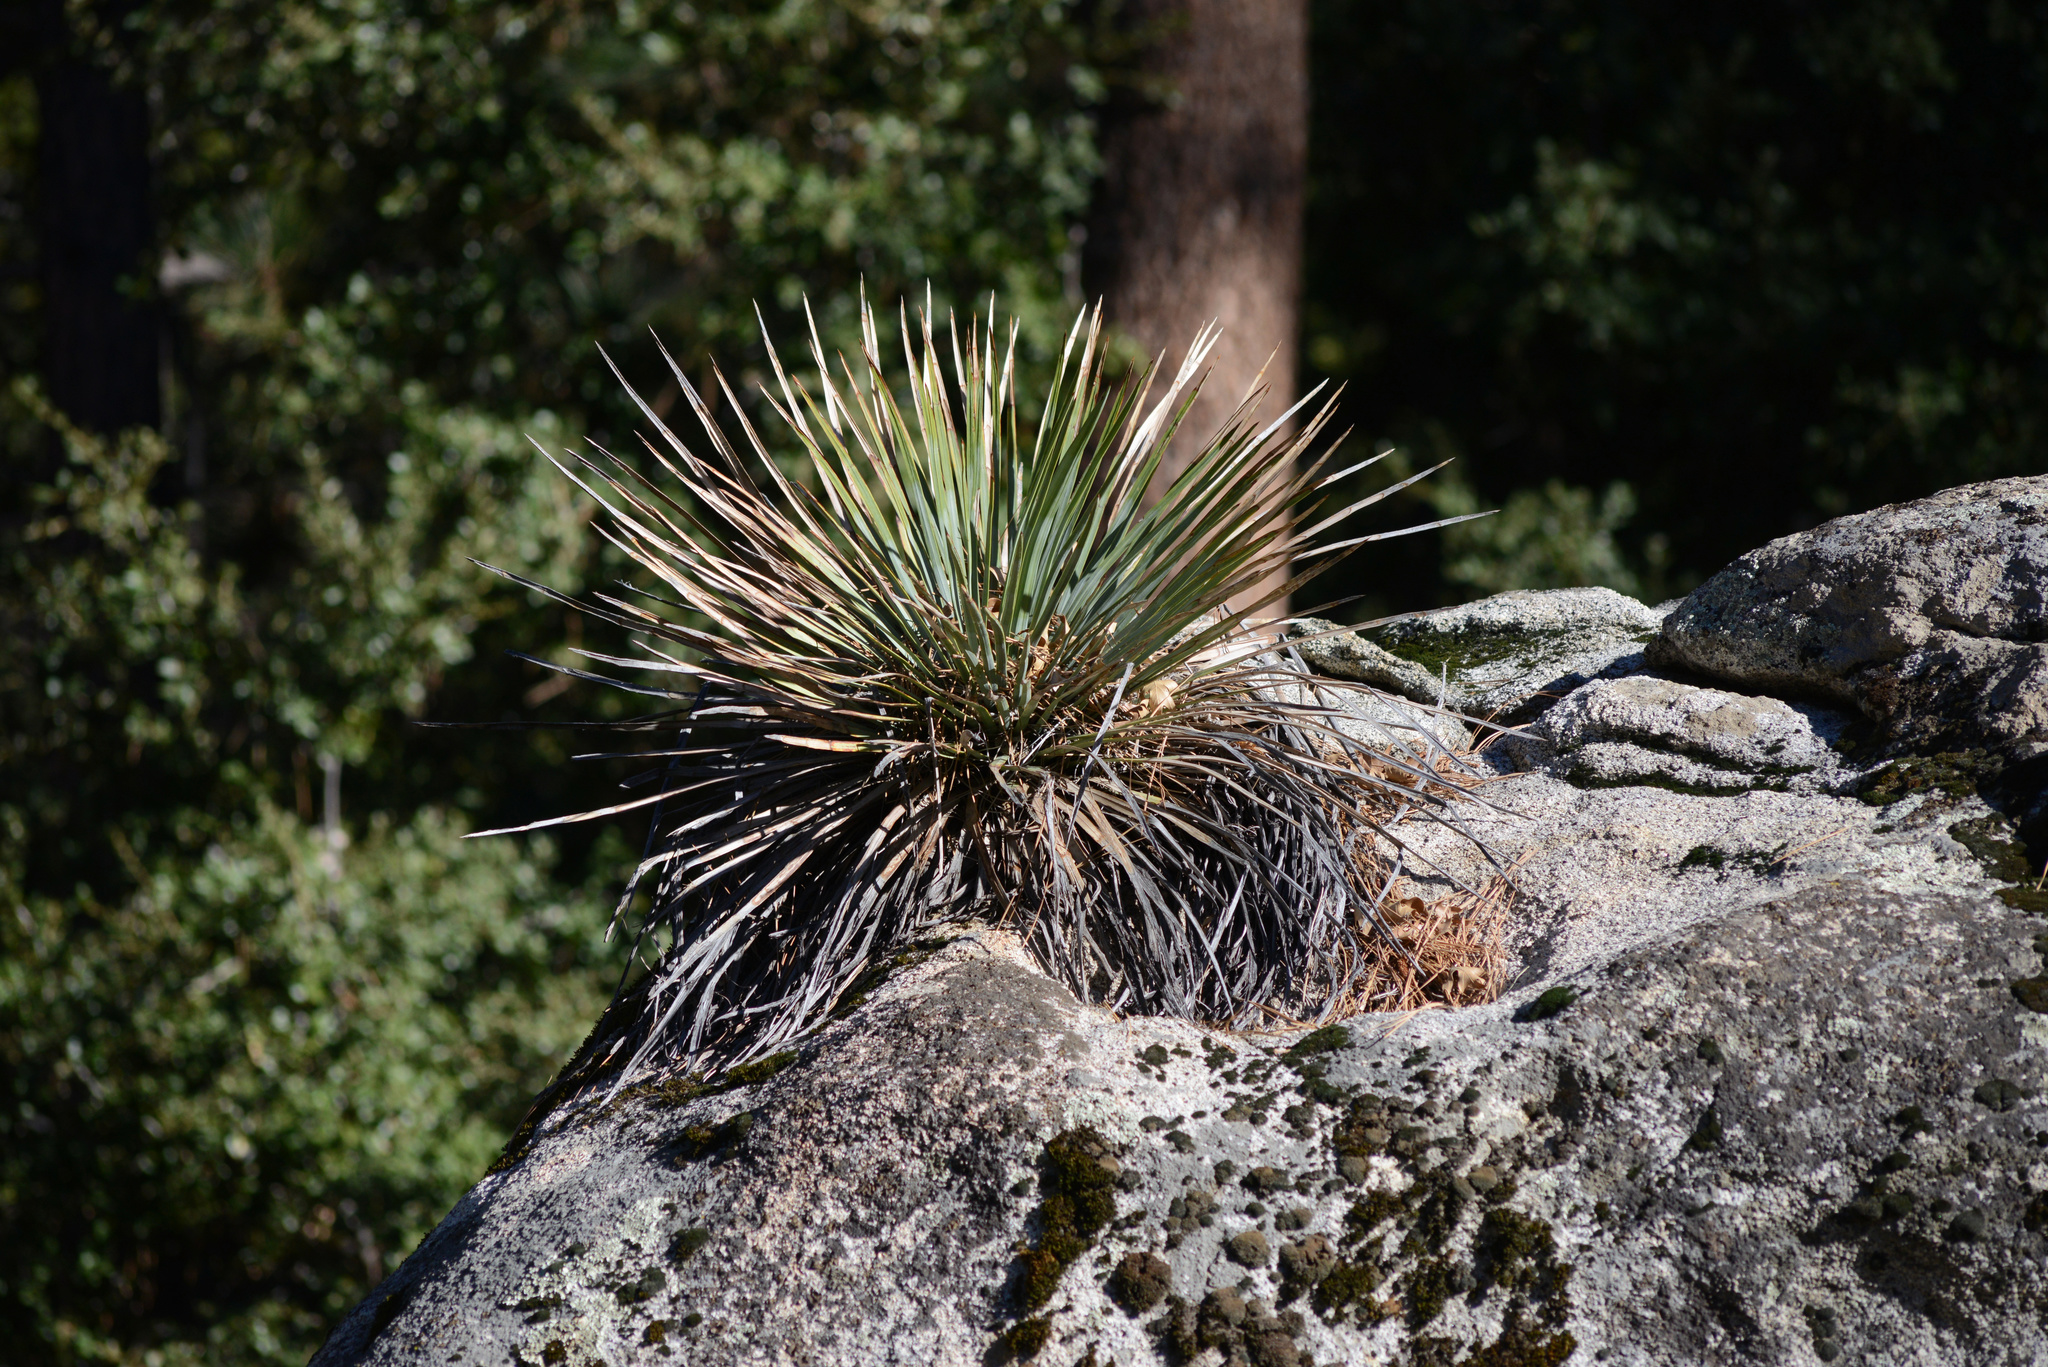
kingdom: Plantae
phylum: Tracheophyta
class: Liliopsida
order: Asparagales
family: Asparagaceae
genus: Hesperoyucca
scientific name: Hesperoyucca whipplei
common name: Our lord's-candle
